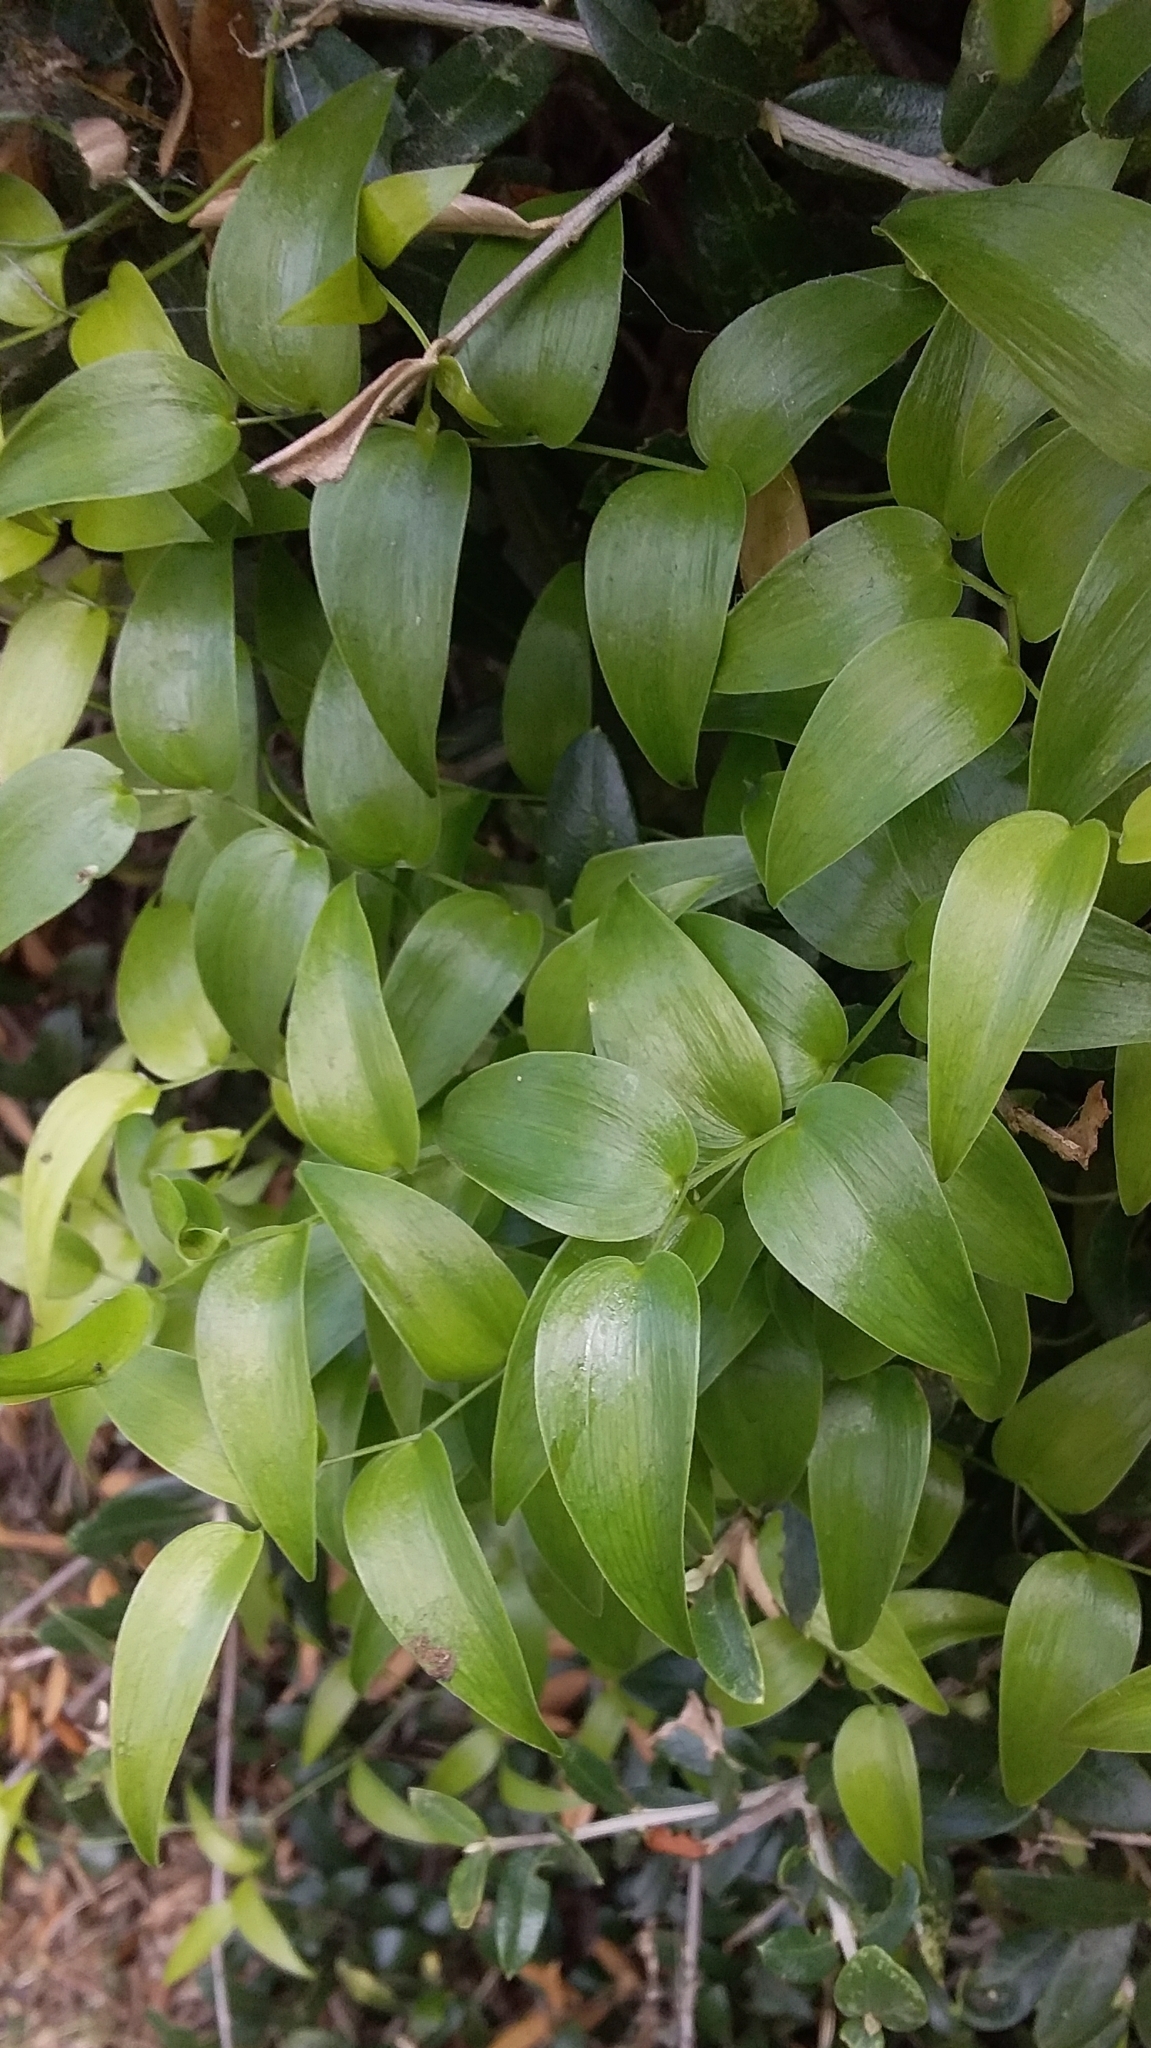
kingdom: Plantae
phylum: Tracheophyta
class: Liliopsida
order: Asparagales
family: Asparagaceae
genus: Asparagus
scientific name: Asparagus asparagoides
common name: African asparagus fern
